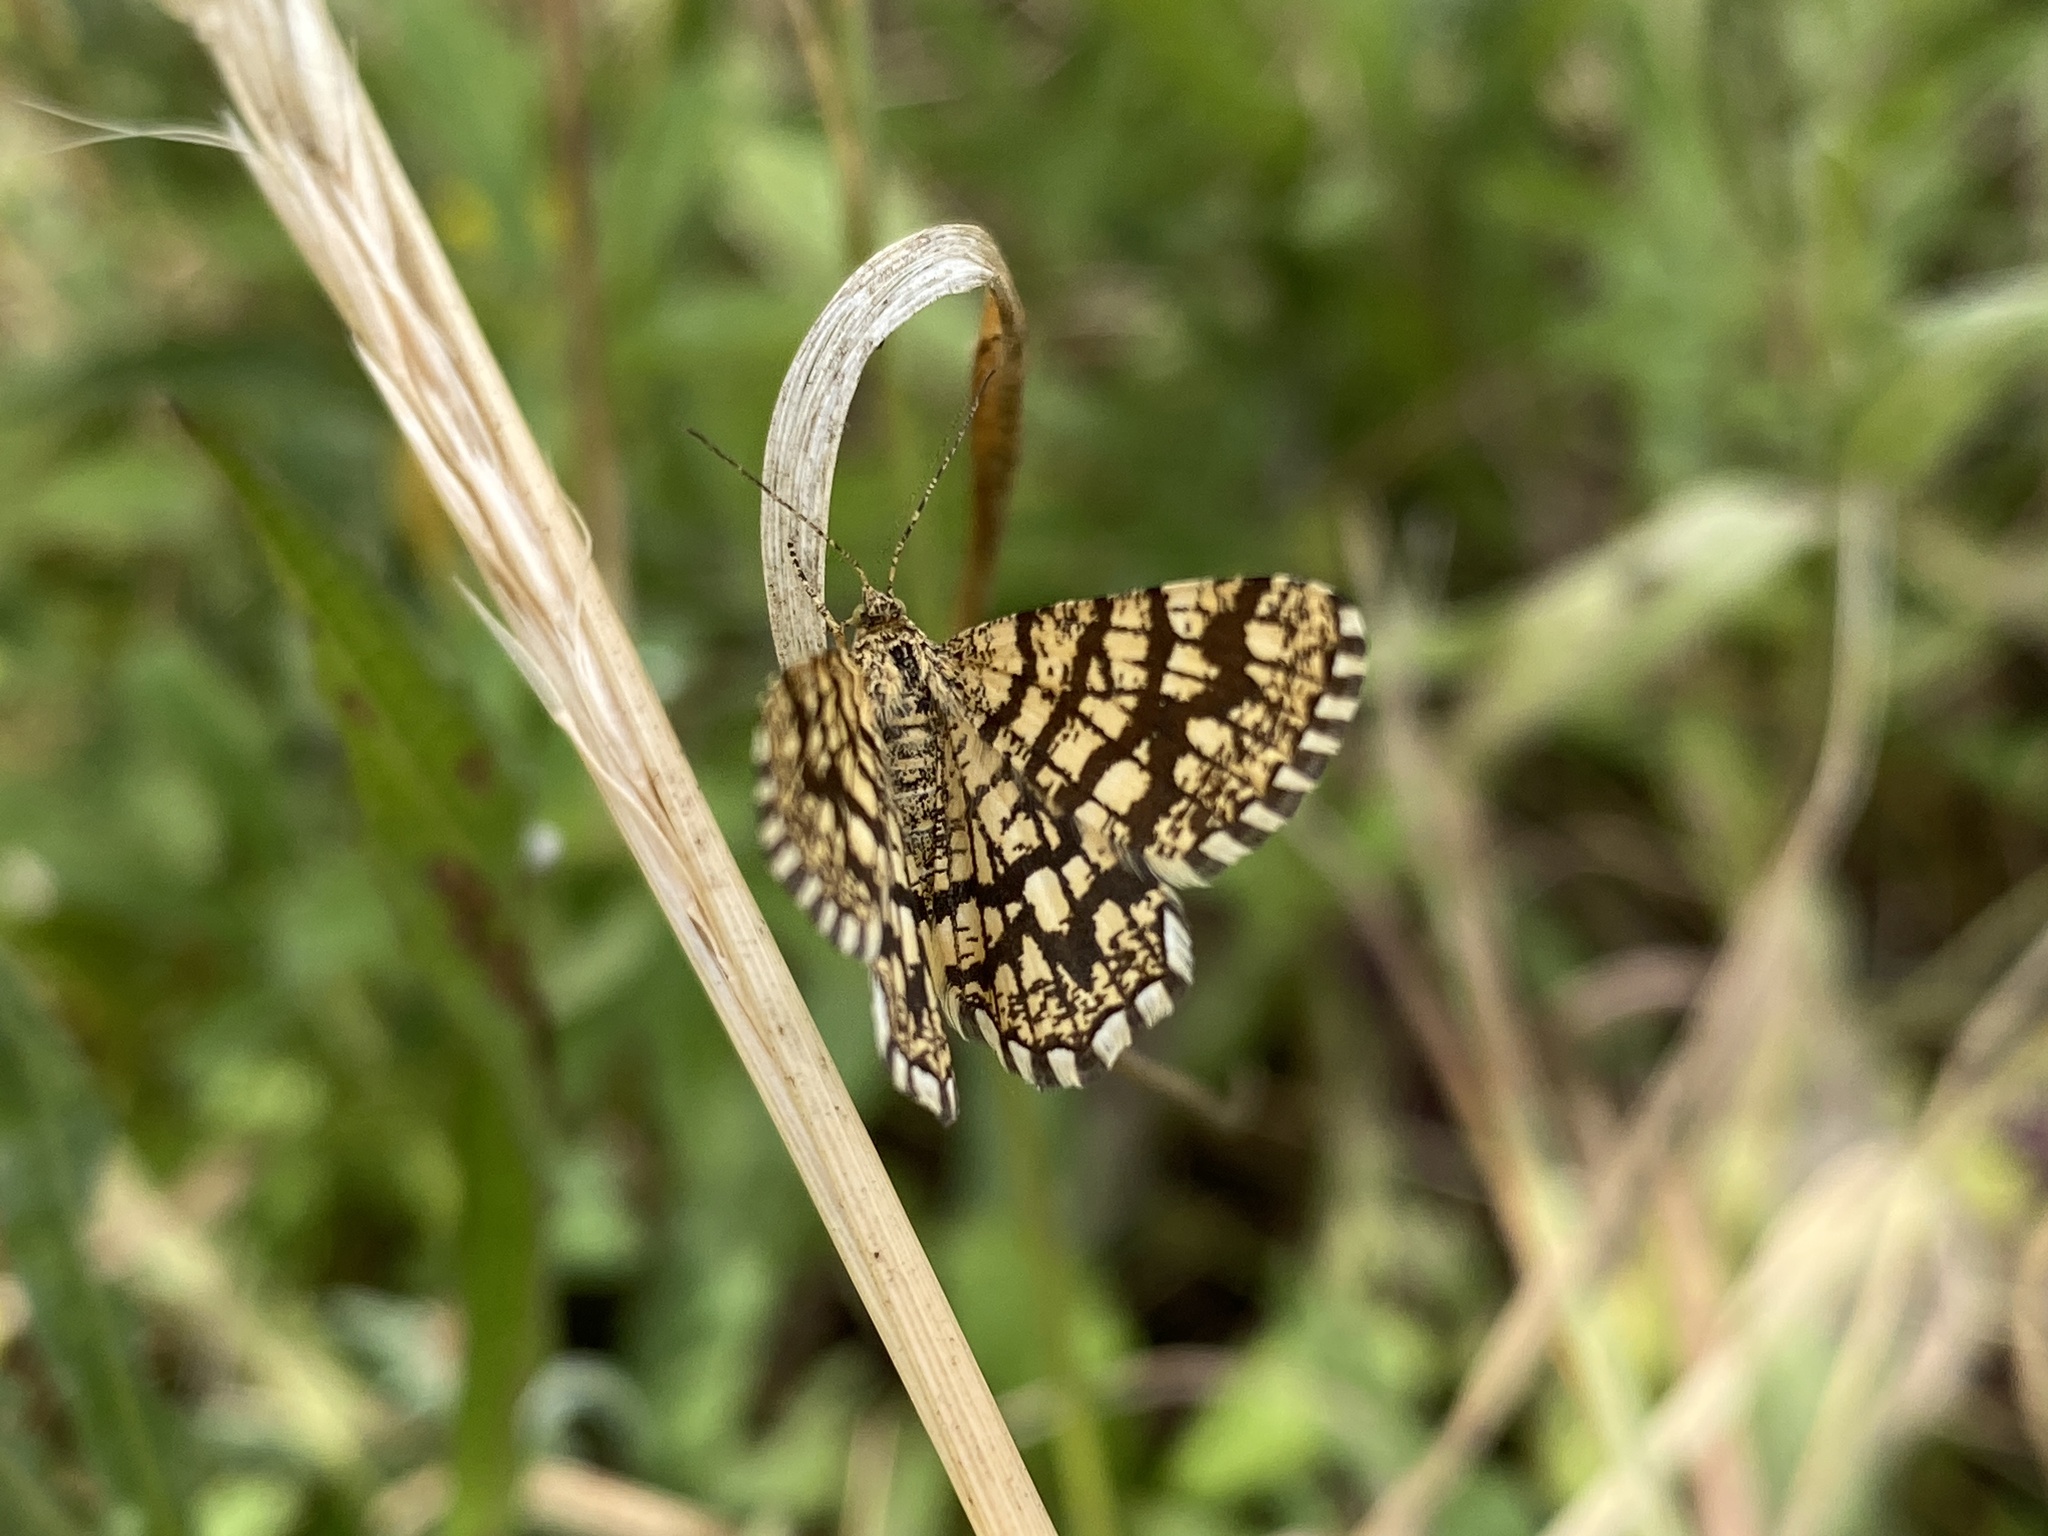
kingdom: Animalia
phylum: Arthropoda
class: Insecta
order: Lepidoptera
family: Geometridae
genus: Chiasmia
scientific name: Chiasmia clathrata
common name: Latticed heath
